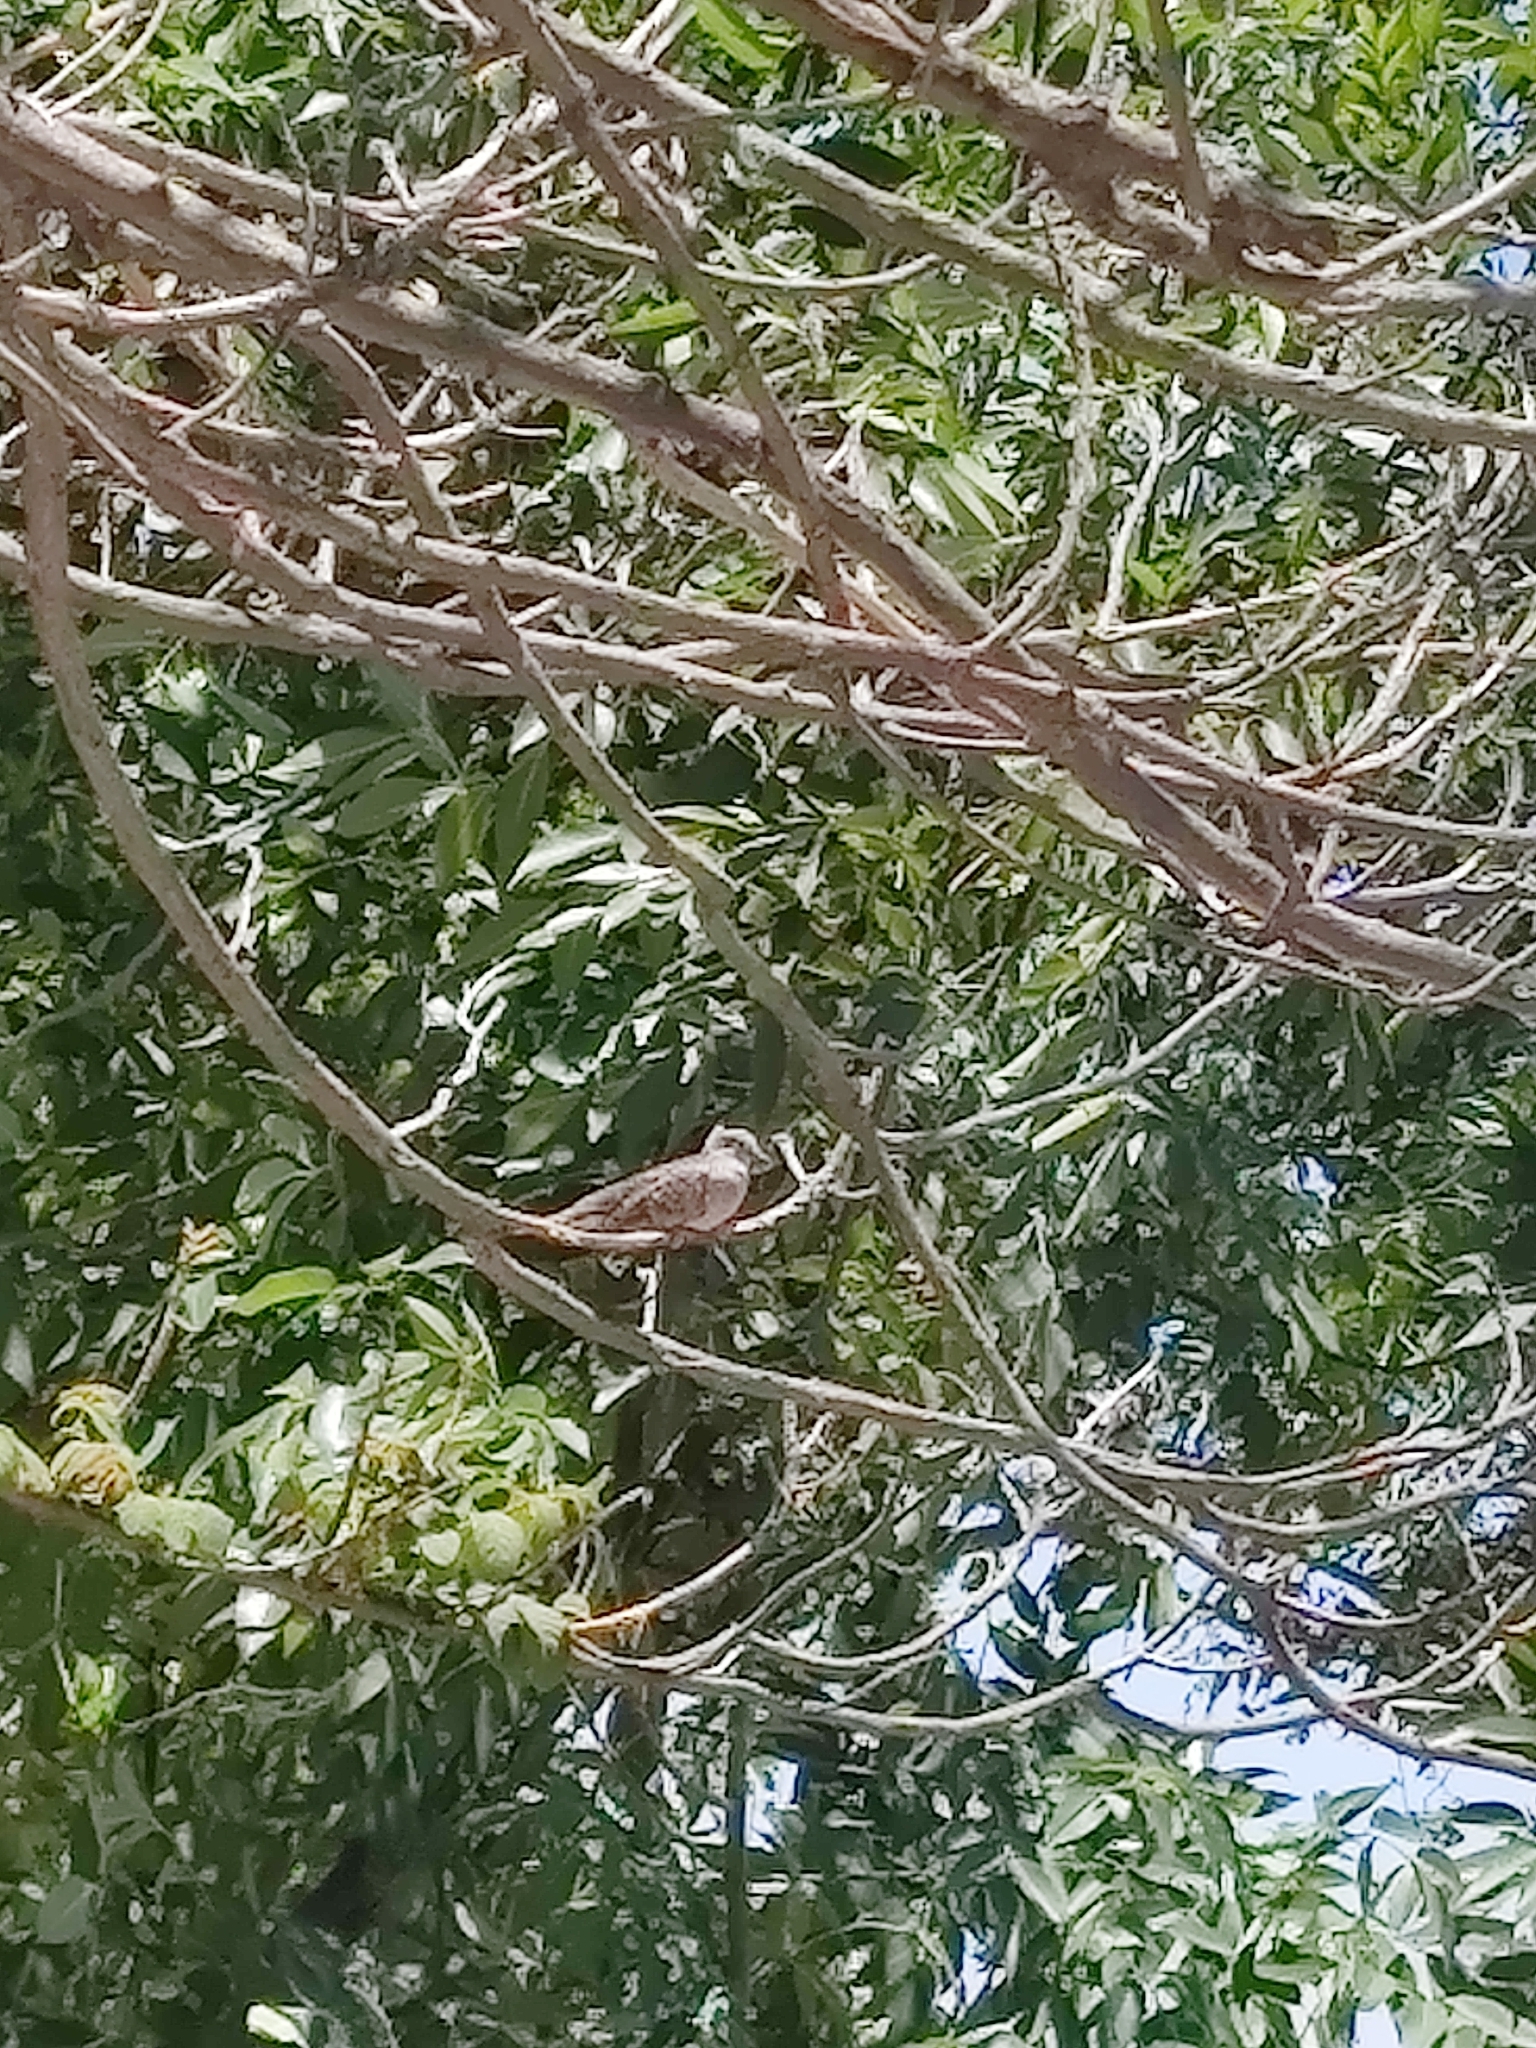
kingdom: Animalia
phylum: Chordata
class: Aves
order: Columbiformes
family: Columbidae
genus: Columbina
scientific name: Columbina inca
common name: Inca dove
